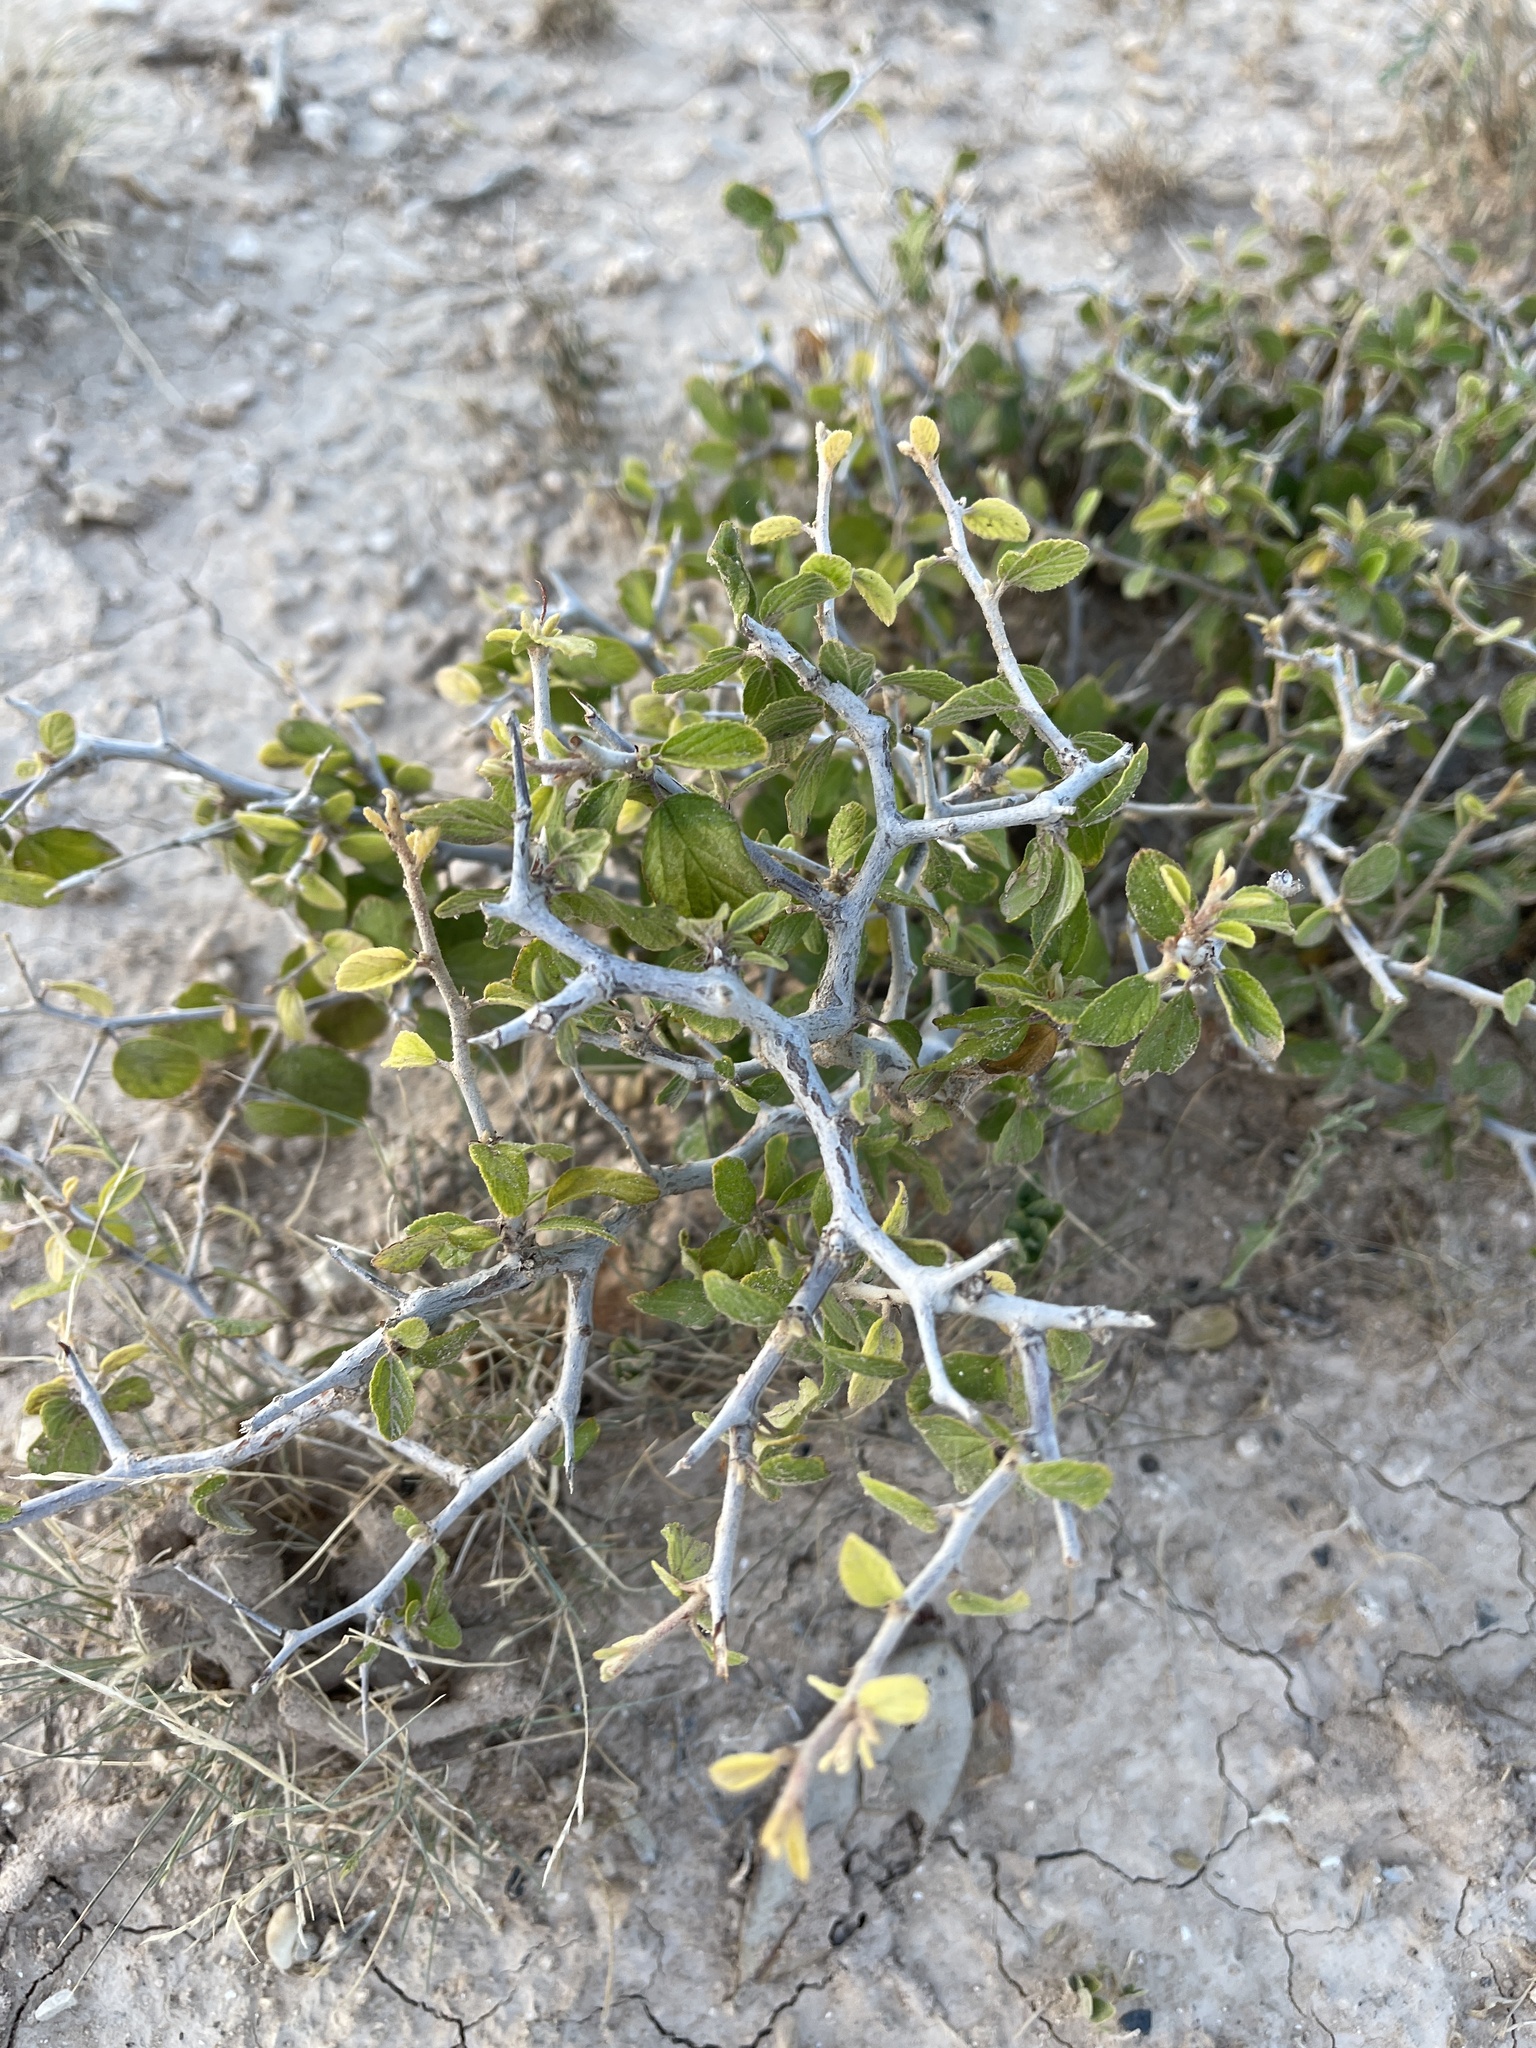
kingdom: Plantae
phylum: Tracheophyta
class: Magnoliopsida
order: Rosales
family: Rhamnaceae
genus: Colubrina
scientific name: Colubrina texensis
